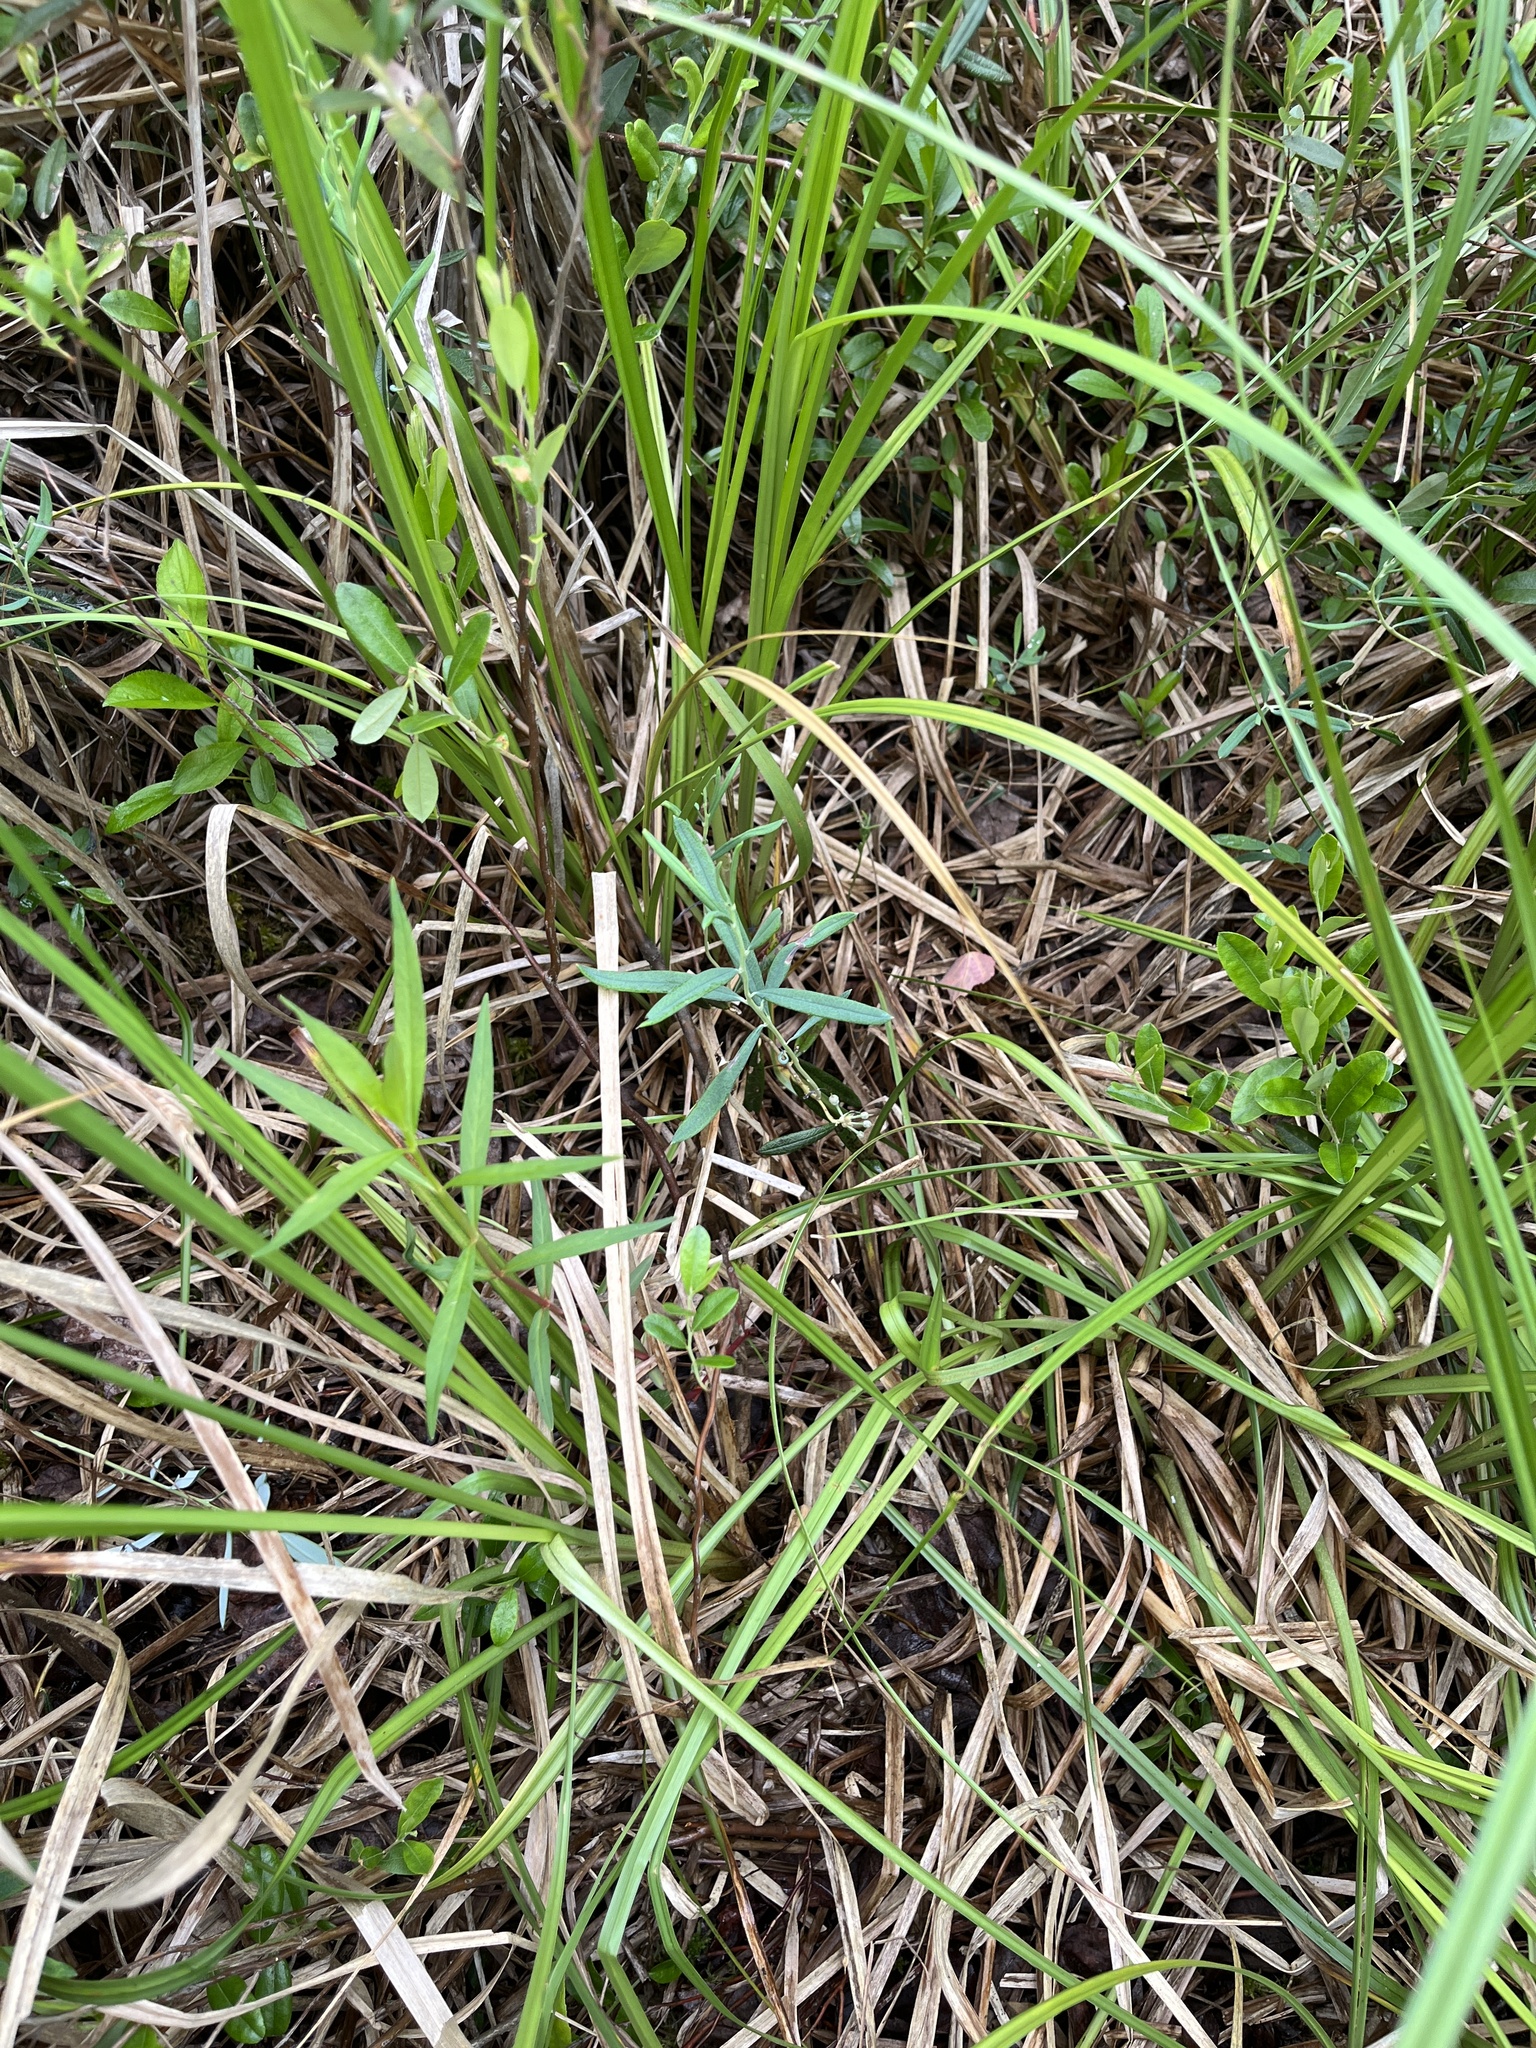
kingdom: Plantae
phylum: Tracheophyta
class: Magnoliopsida
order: Ericales
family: Ericaceae
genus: Andromeda
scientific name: Andromeda polifolia
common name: Bog-rosemary
